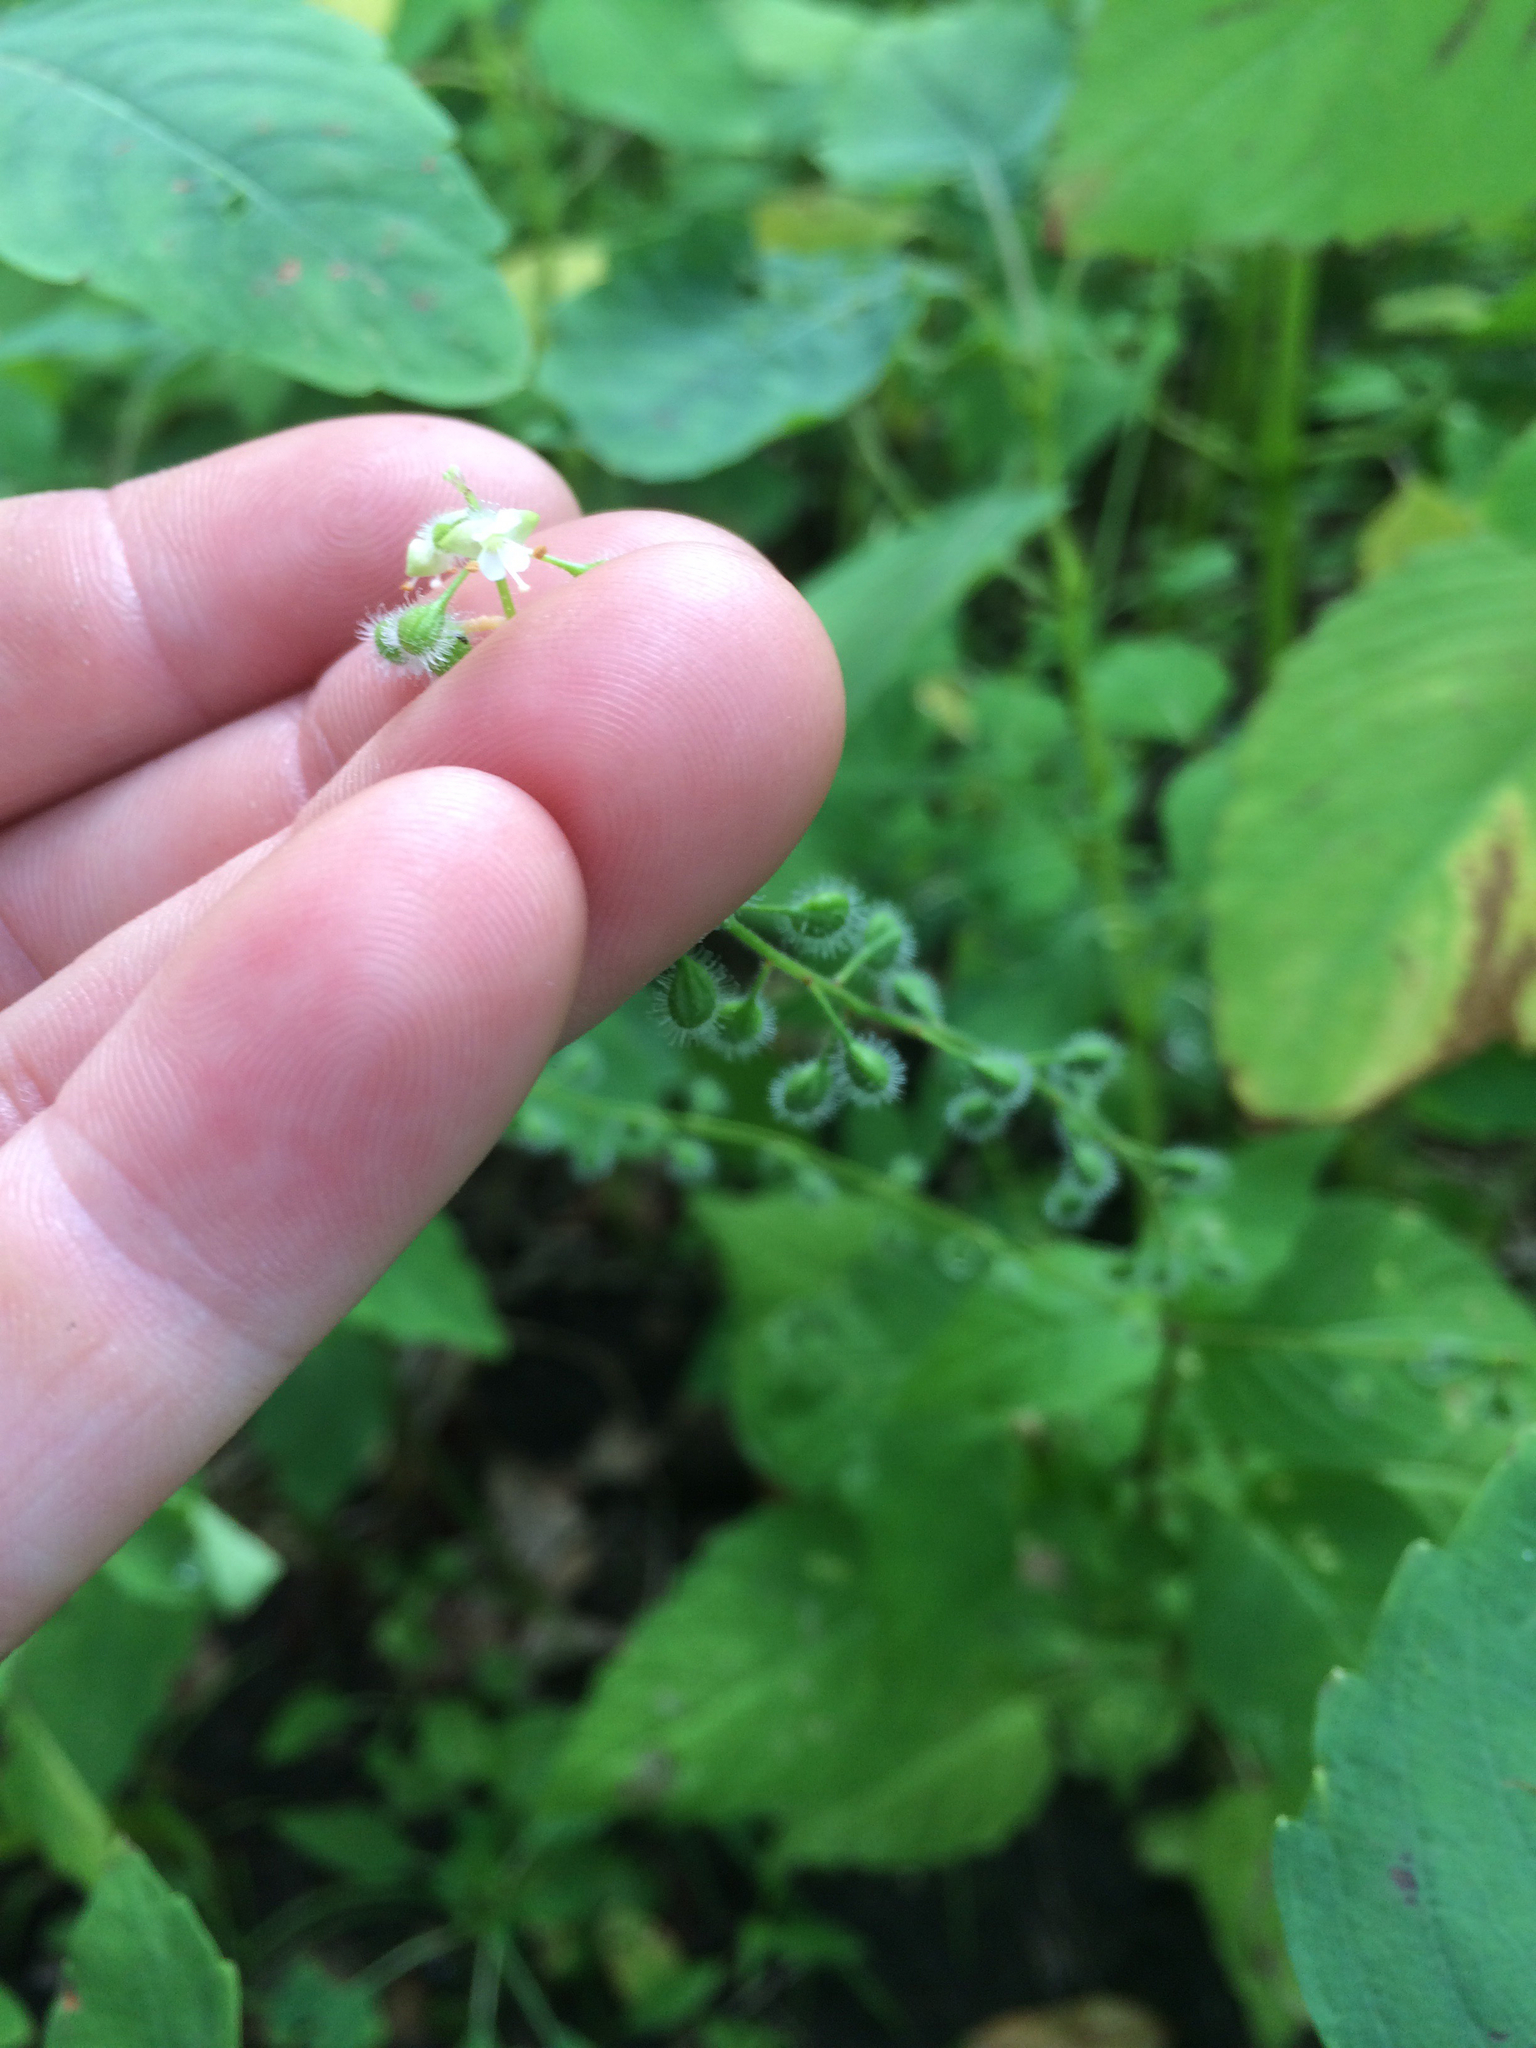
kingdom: Plantae
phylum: Tracheophyta
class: Magnoliopsida
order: Myrtales
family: Onagraceae
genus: Circaea
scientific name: Circaea canadensis
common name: Broad-leaved enchanter's nightshade
